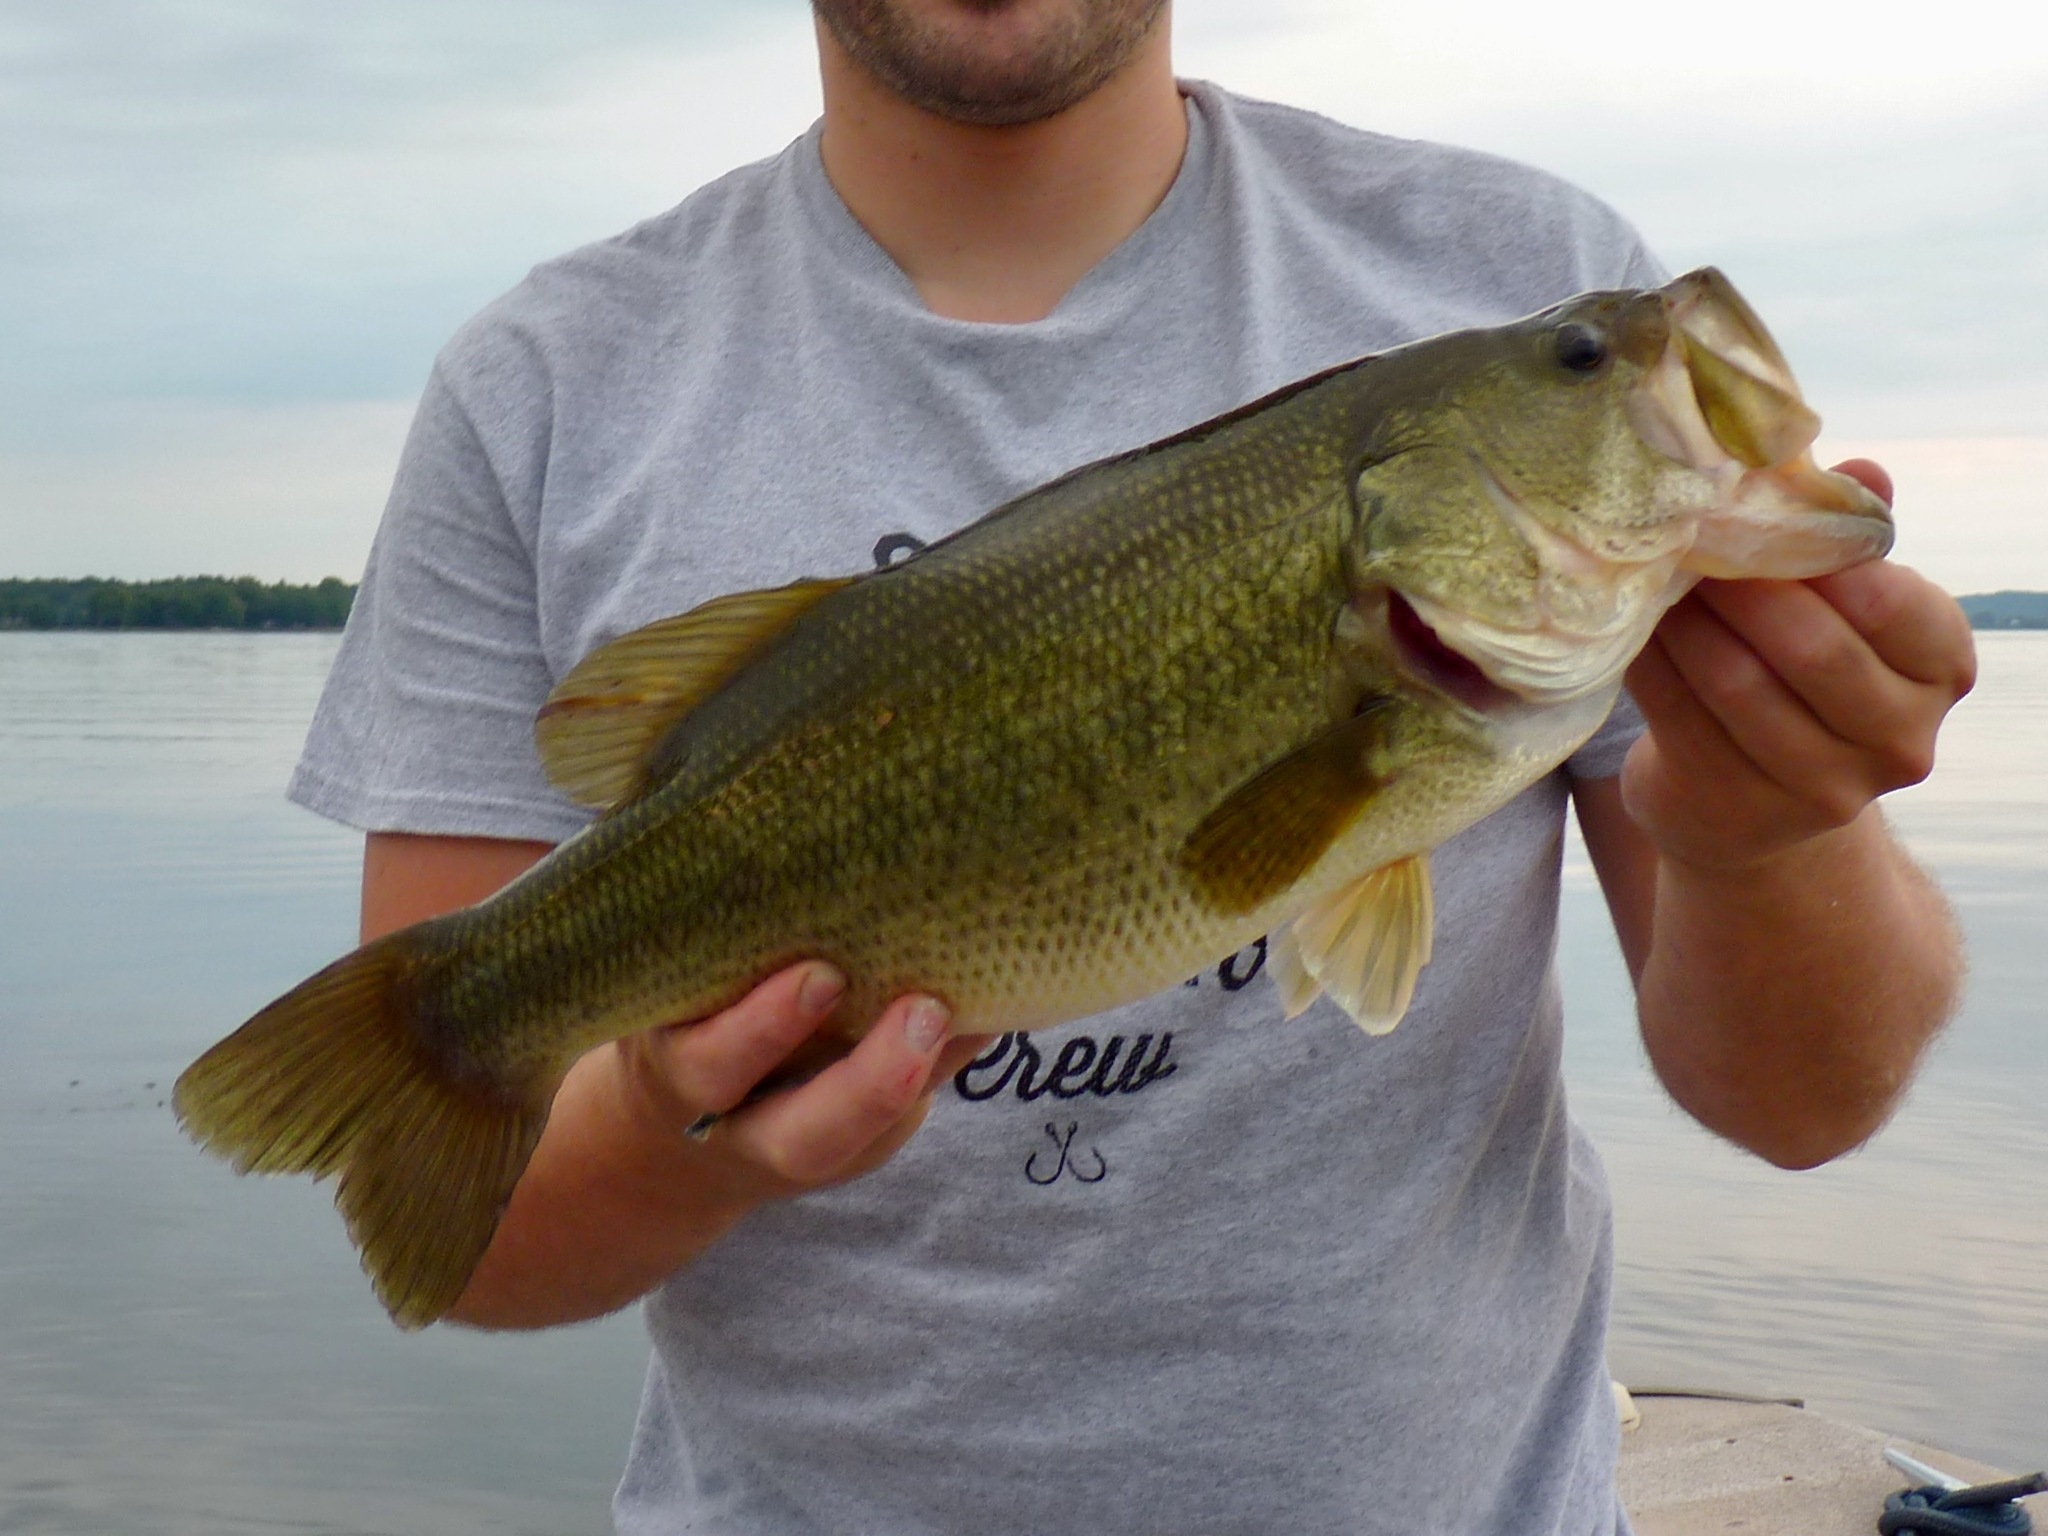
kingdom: Animalia
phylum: Chordata
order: Perciformes
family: Centrarchidae
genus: Micropterus
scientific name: Micropterus
